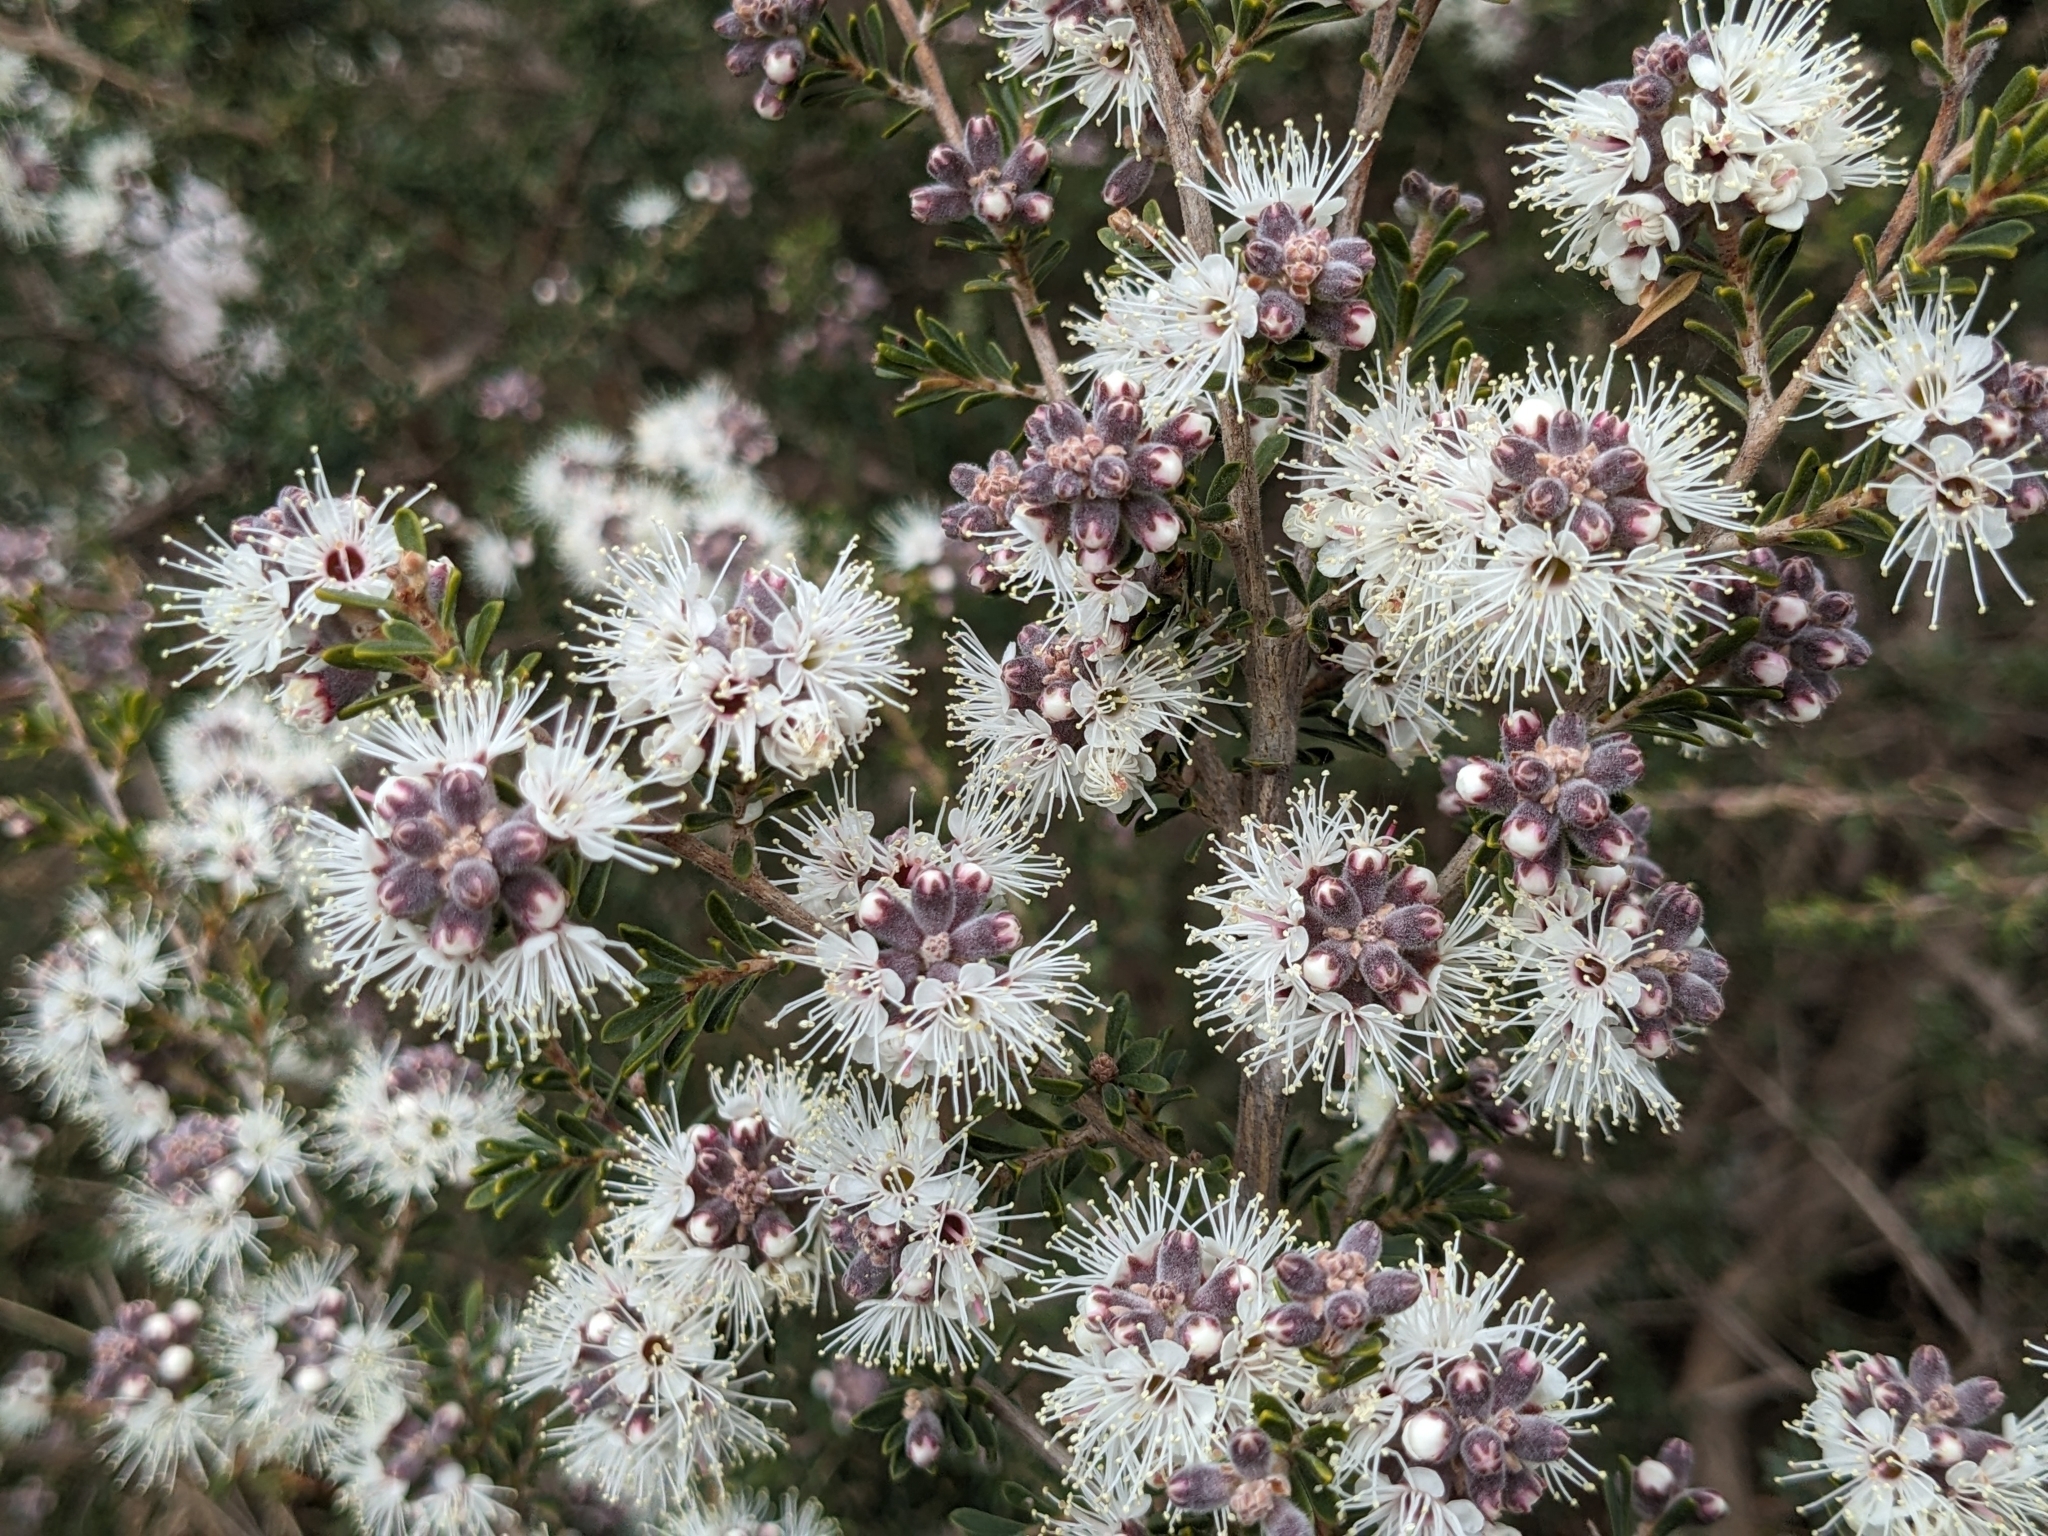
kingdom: Plantae
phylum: Tracheophyta
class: Magnoliopsida
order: Myrtales
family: Myrtaceae
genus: Kunzea
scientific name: Kunzea ambigua
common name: Tickbush
